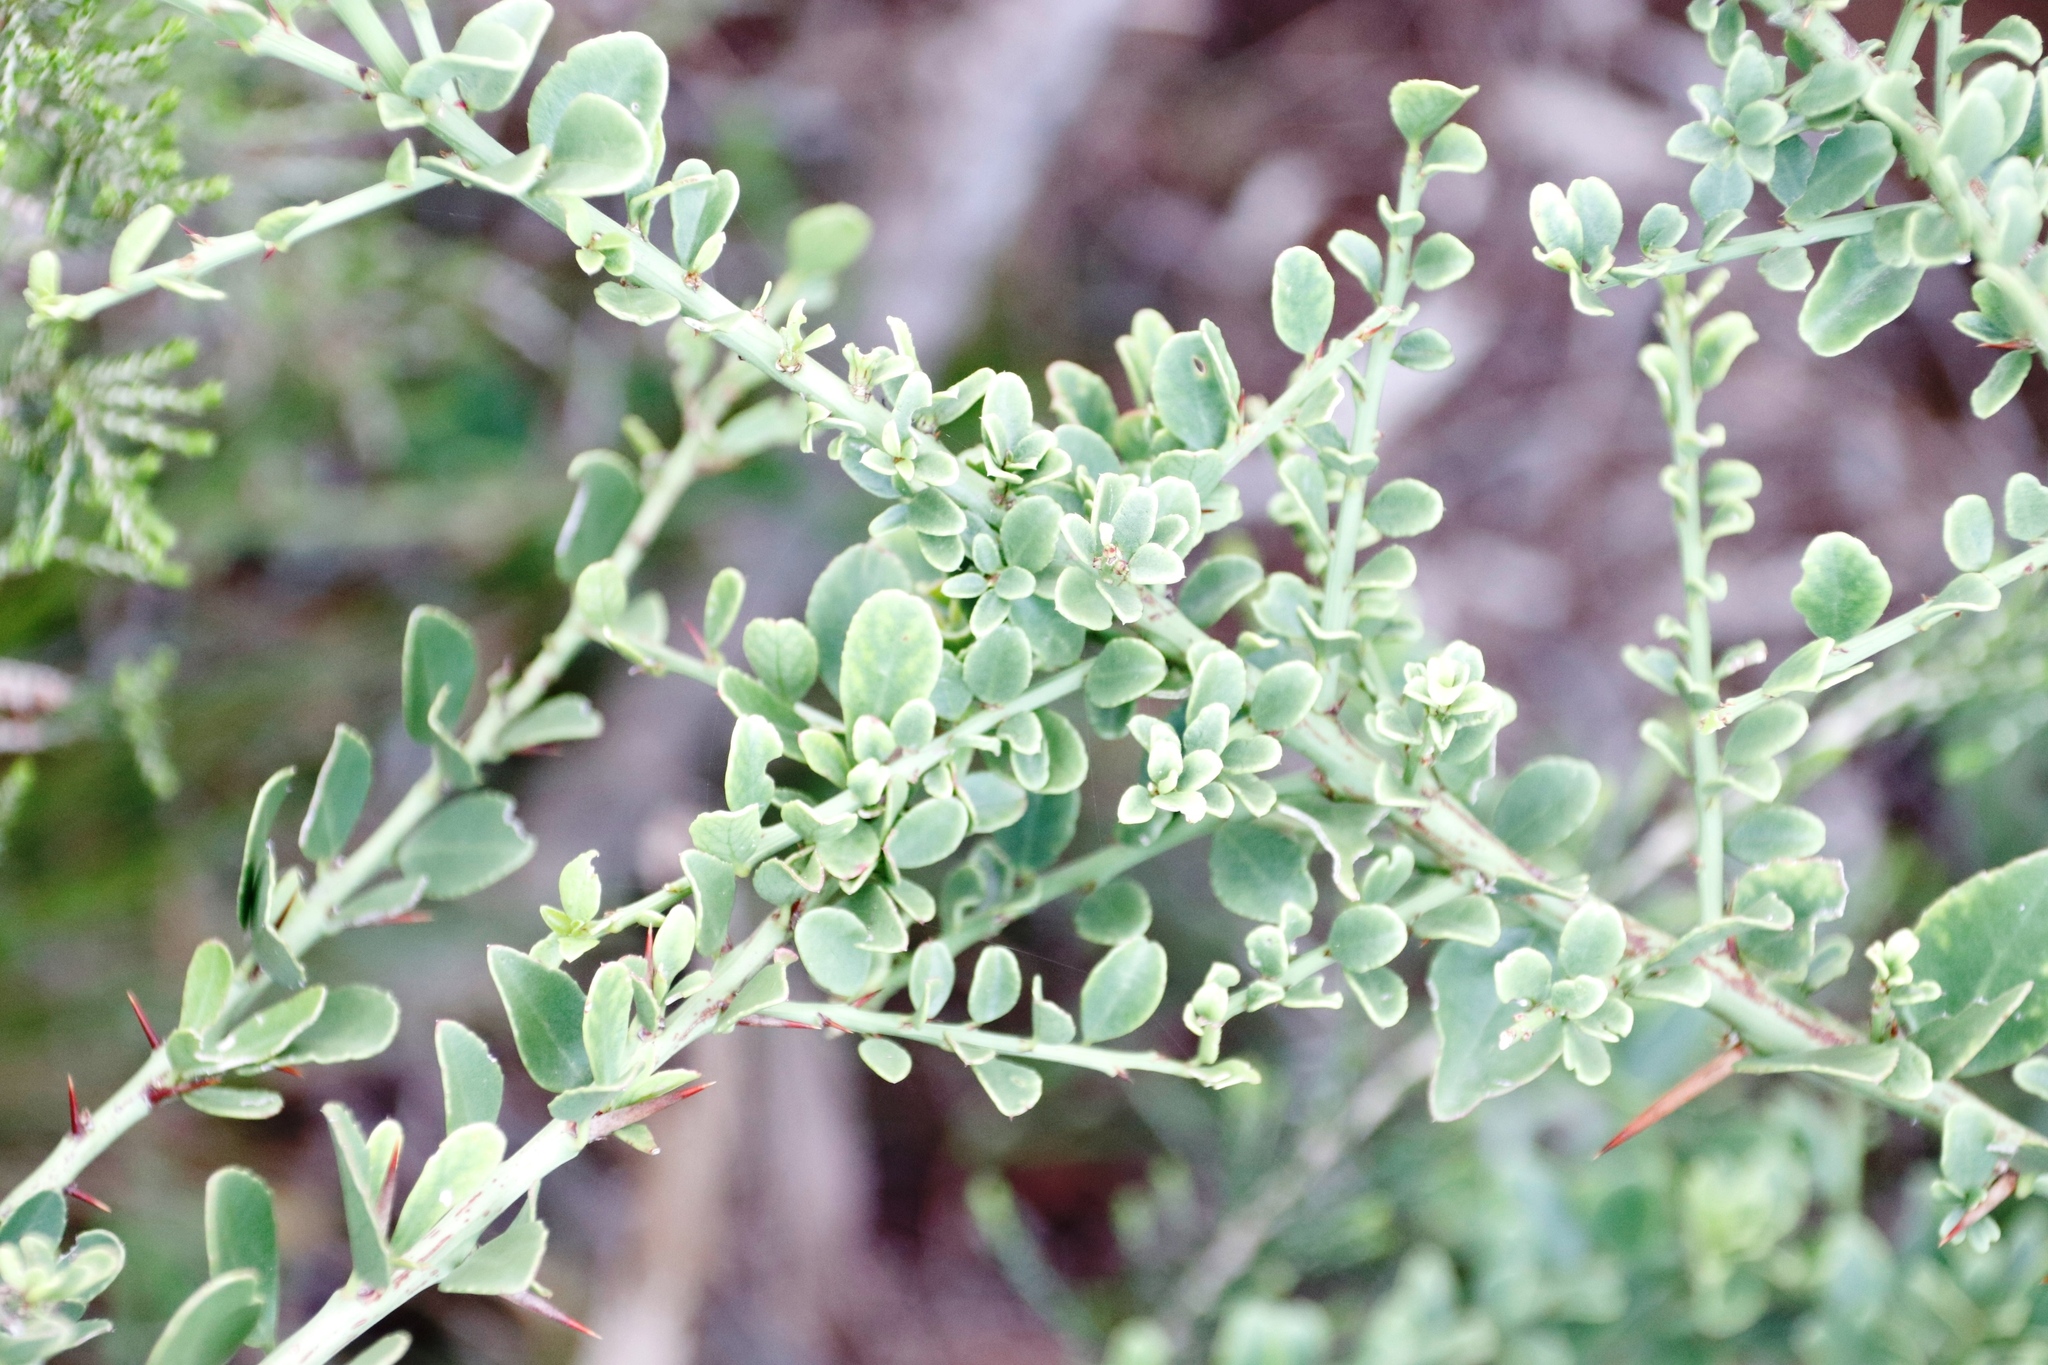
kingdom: Plantae
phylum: Tracheophyta
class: Magnoliopsida
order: Celastrales
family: Celastraceae
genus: Gymnosporia
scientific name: Gymnosporia buxifolia
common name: Common spike-thorn
